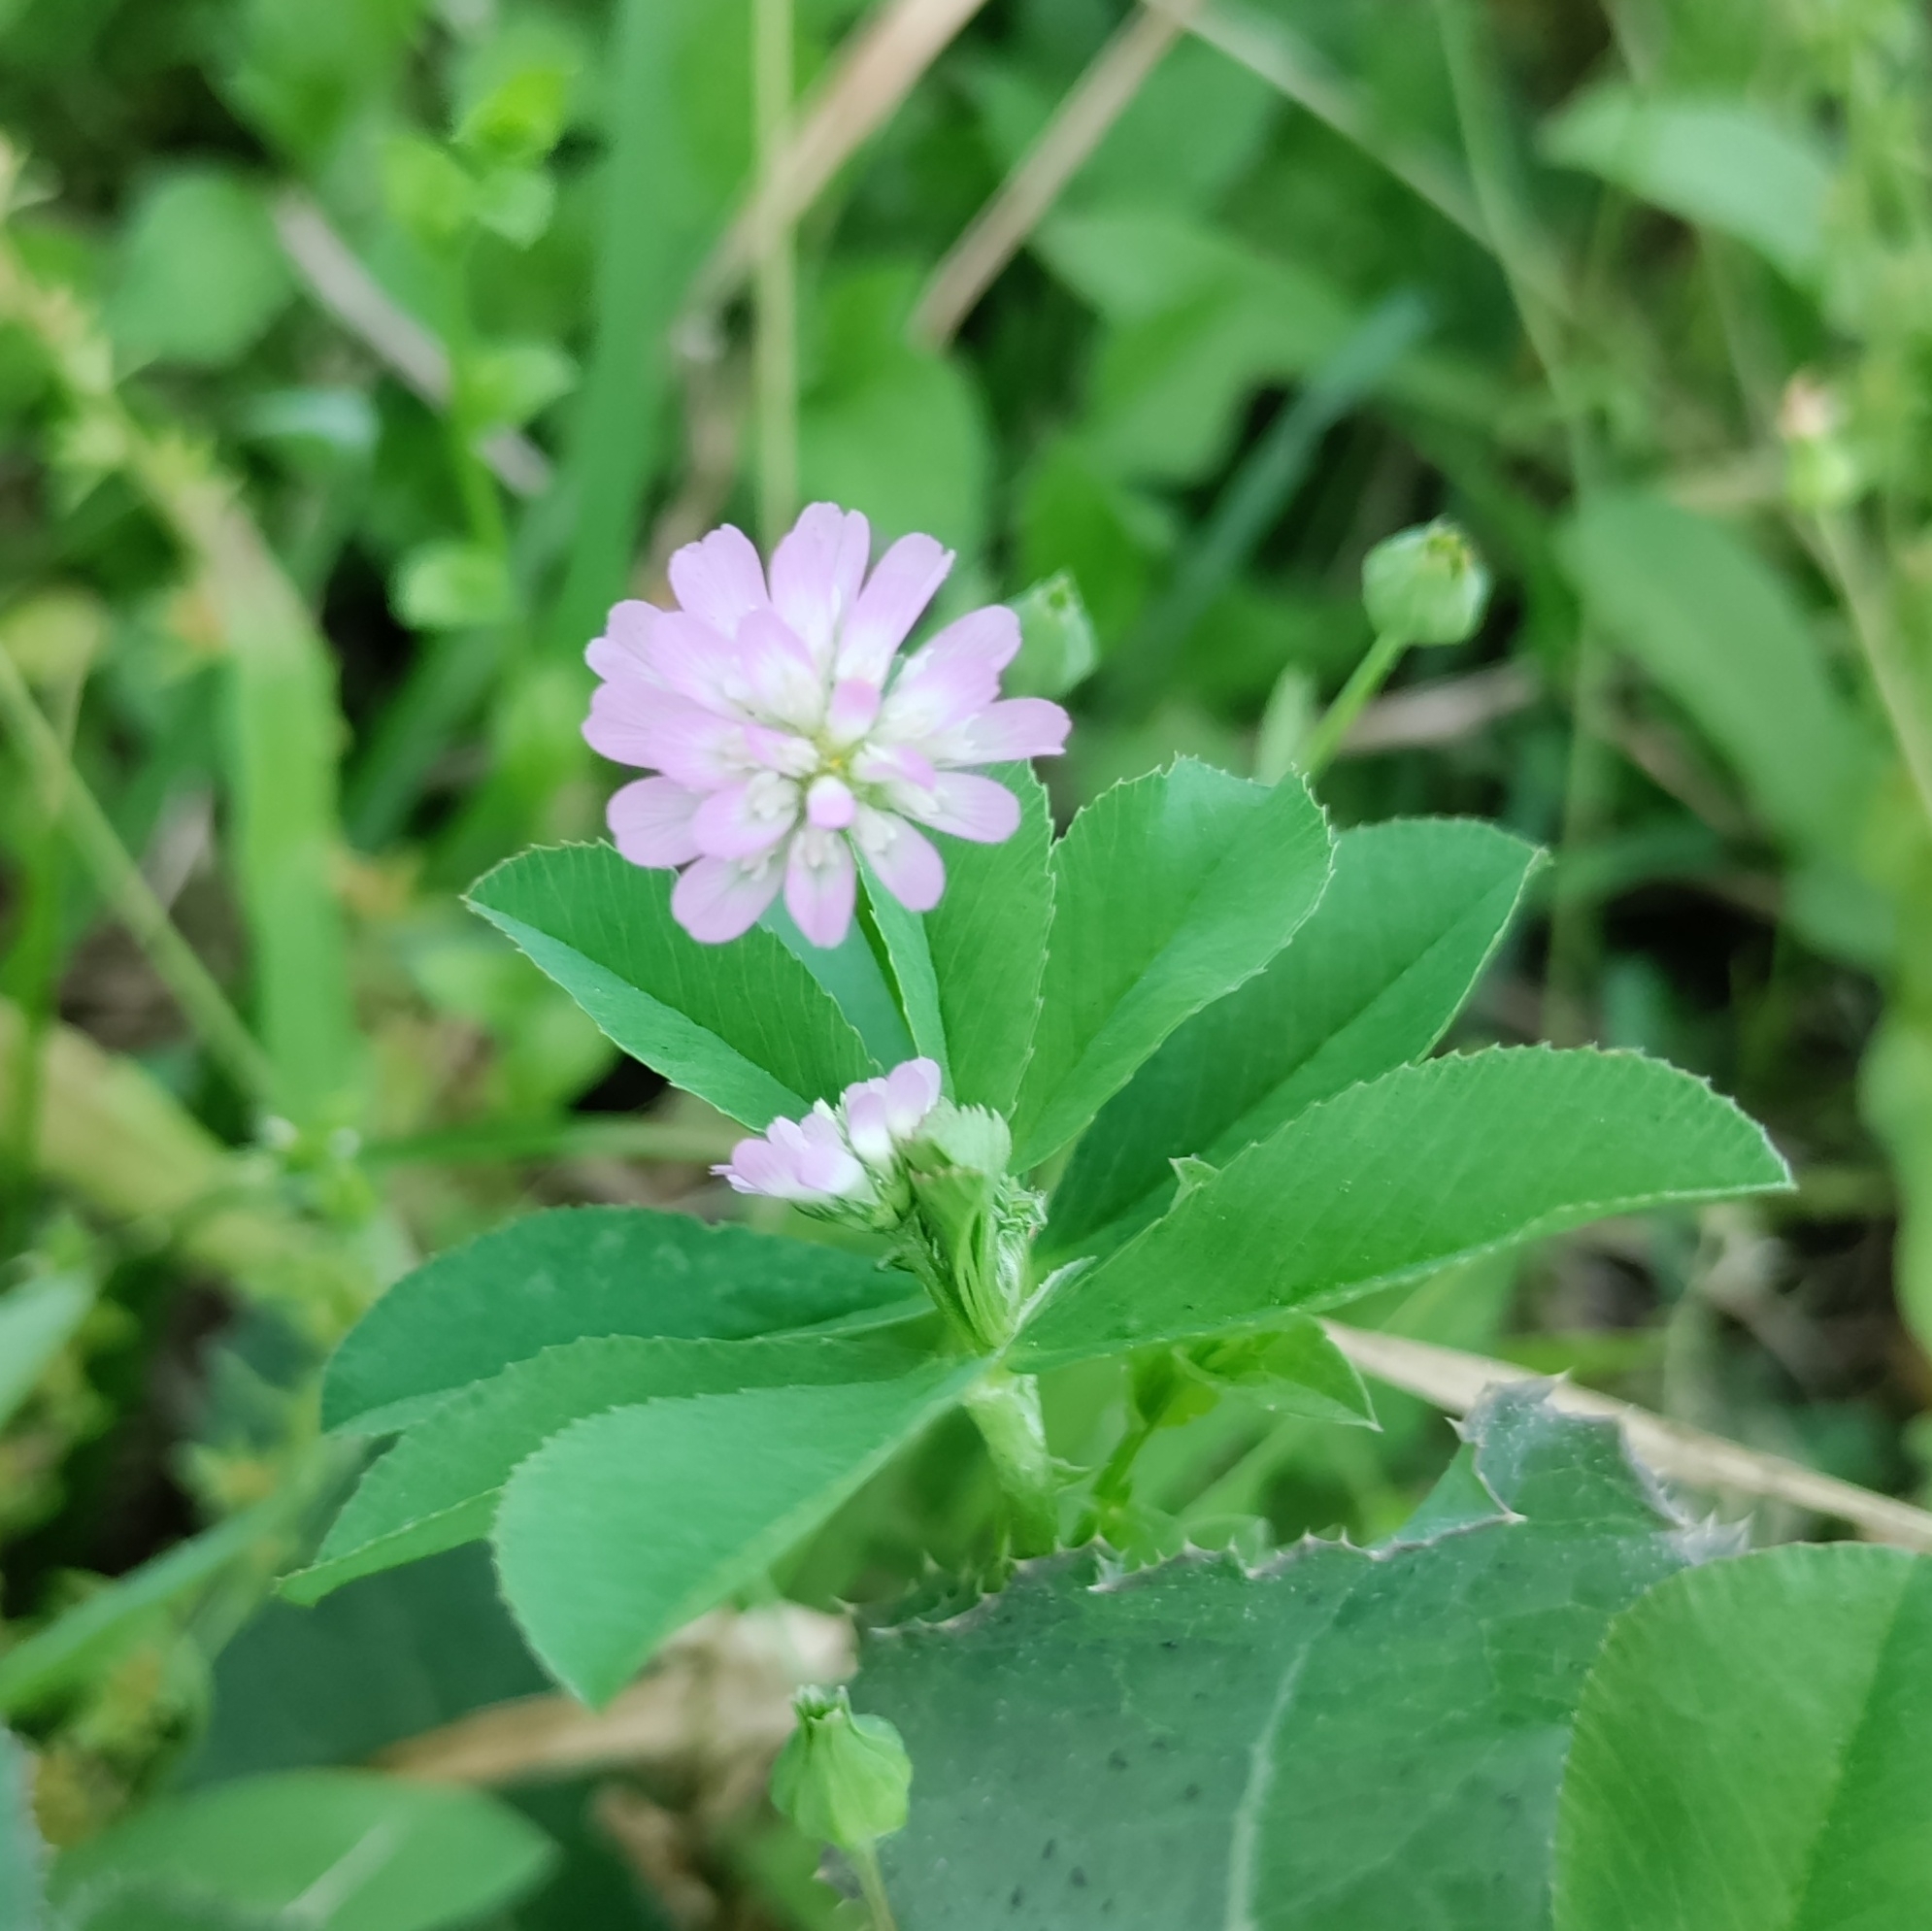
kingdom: Plantae
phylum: Tracheophyta
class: Magnoliopsida
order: Fabales
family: Fabaceae
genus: Trifolium
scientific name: Trifolium resupinatum
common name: Reversed clover
